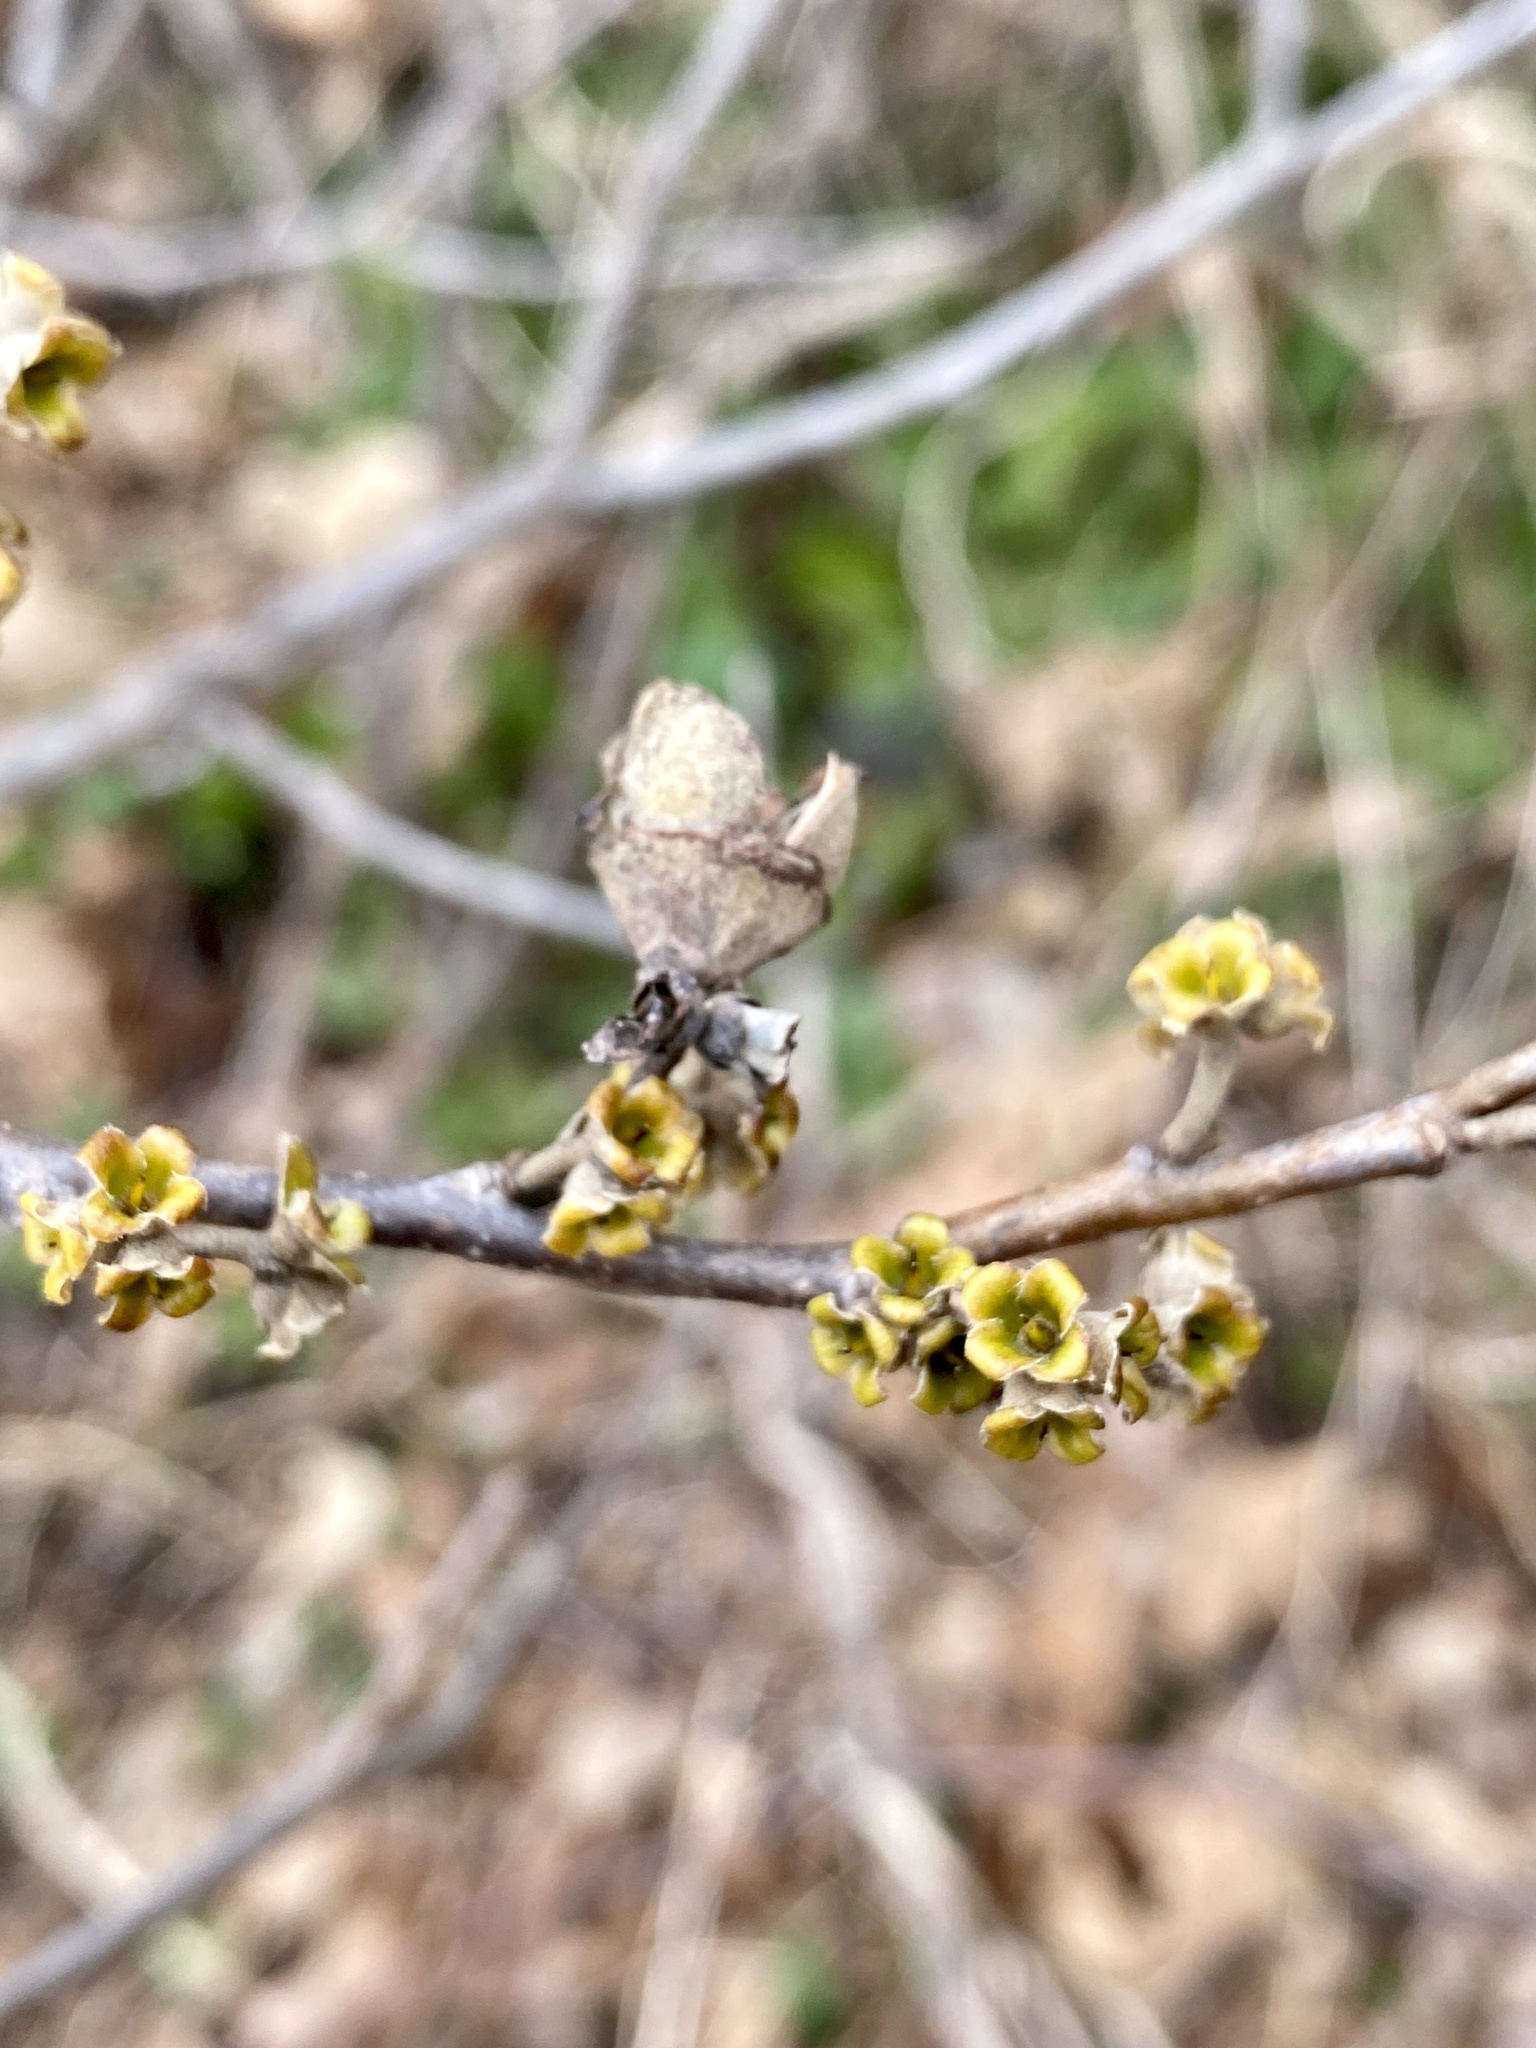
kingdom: Plantae
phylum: Tracheophyta
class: Magnoliopsida
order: Saxifragales
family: Hamamelidaceae
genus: Hamamelis
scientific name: Hamamelis virginiana
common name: Witch-hazel
